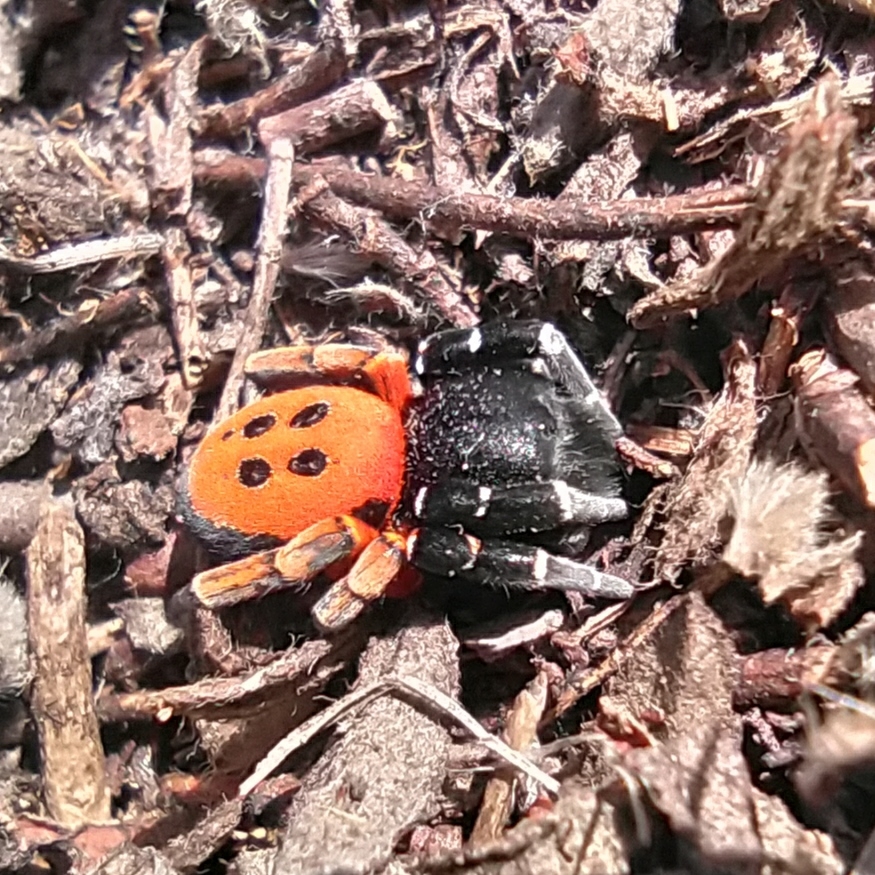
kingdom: Animalia
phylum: Arthropoda
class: Arachnida
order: Araneae
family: Eresidae
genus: Eresus
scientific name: Eresus kollari
